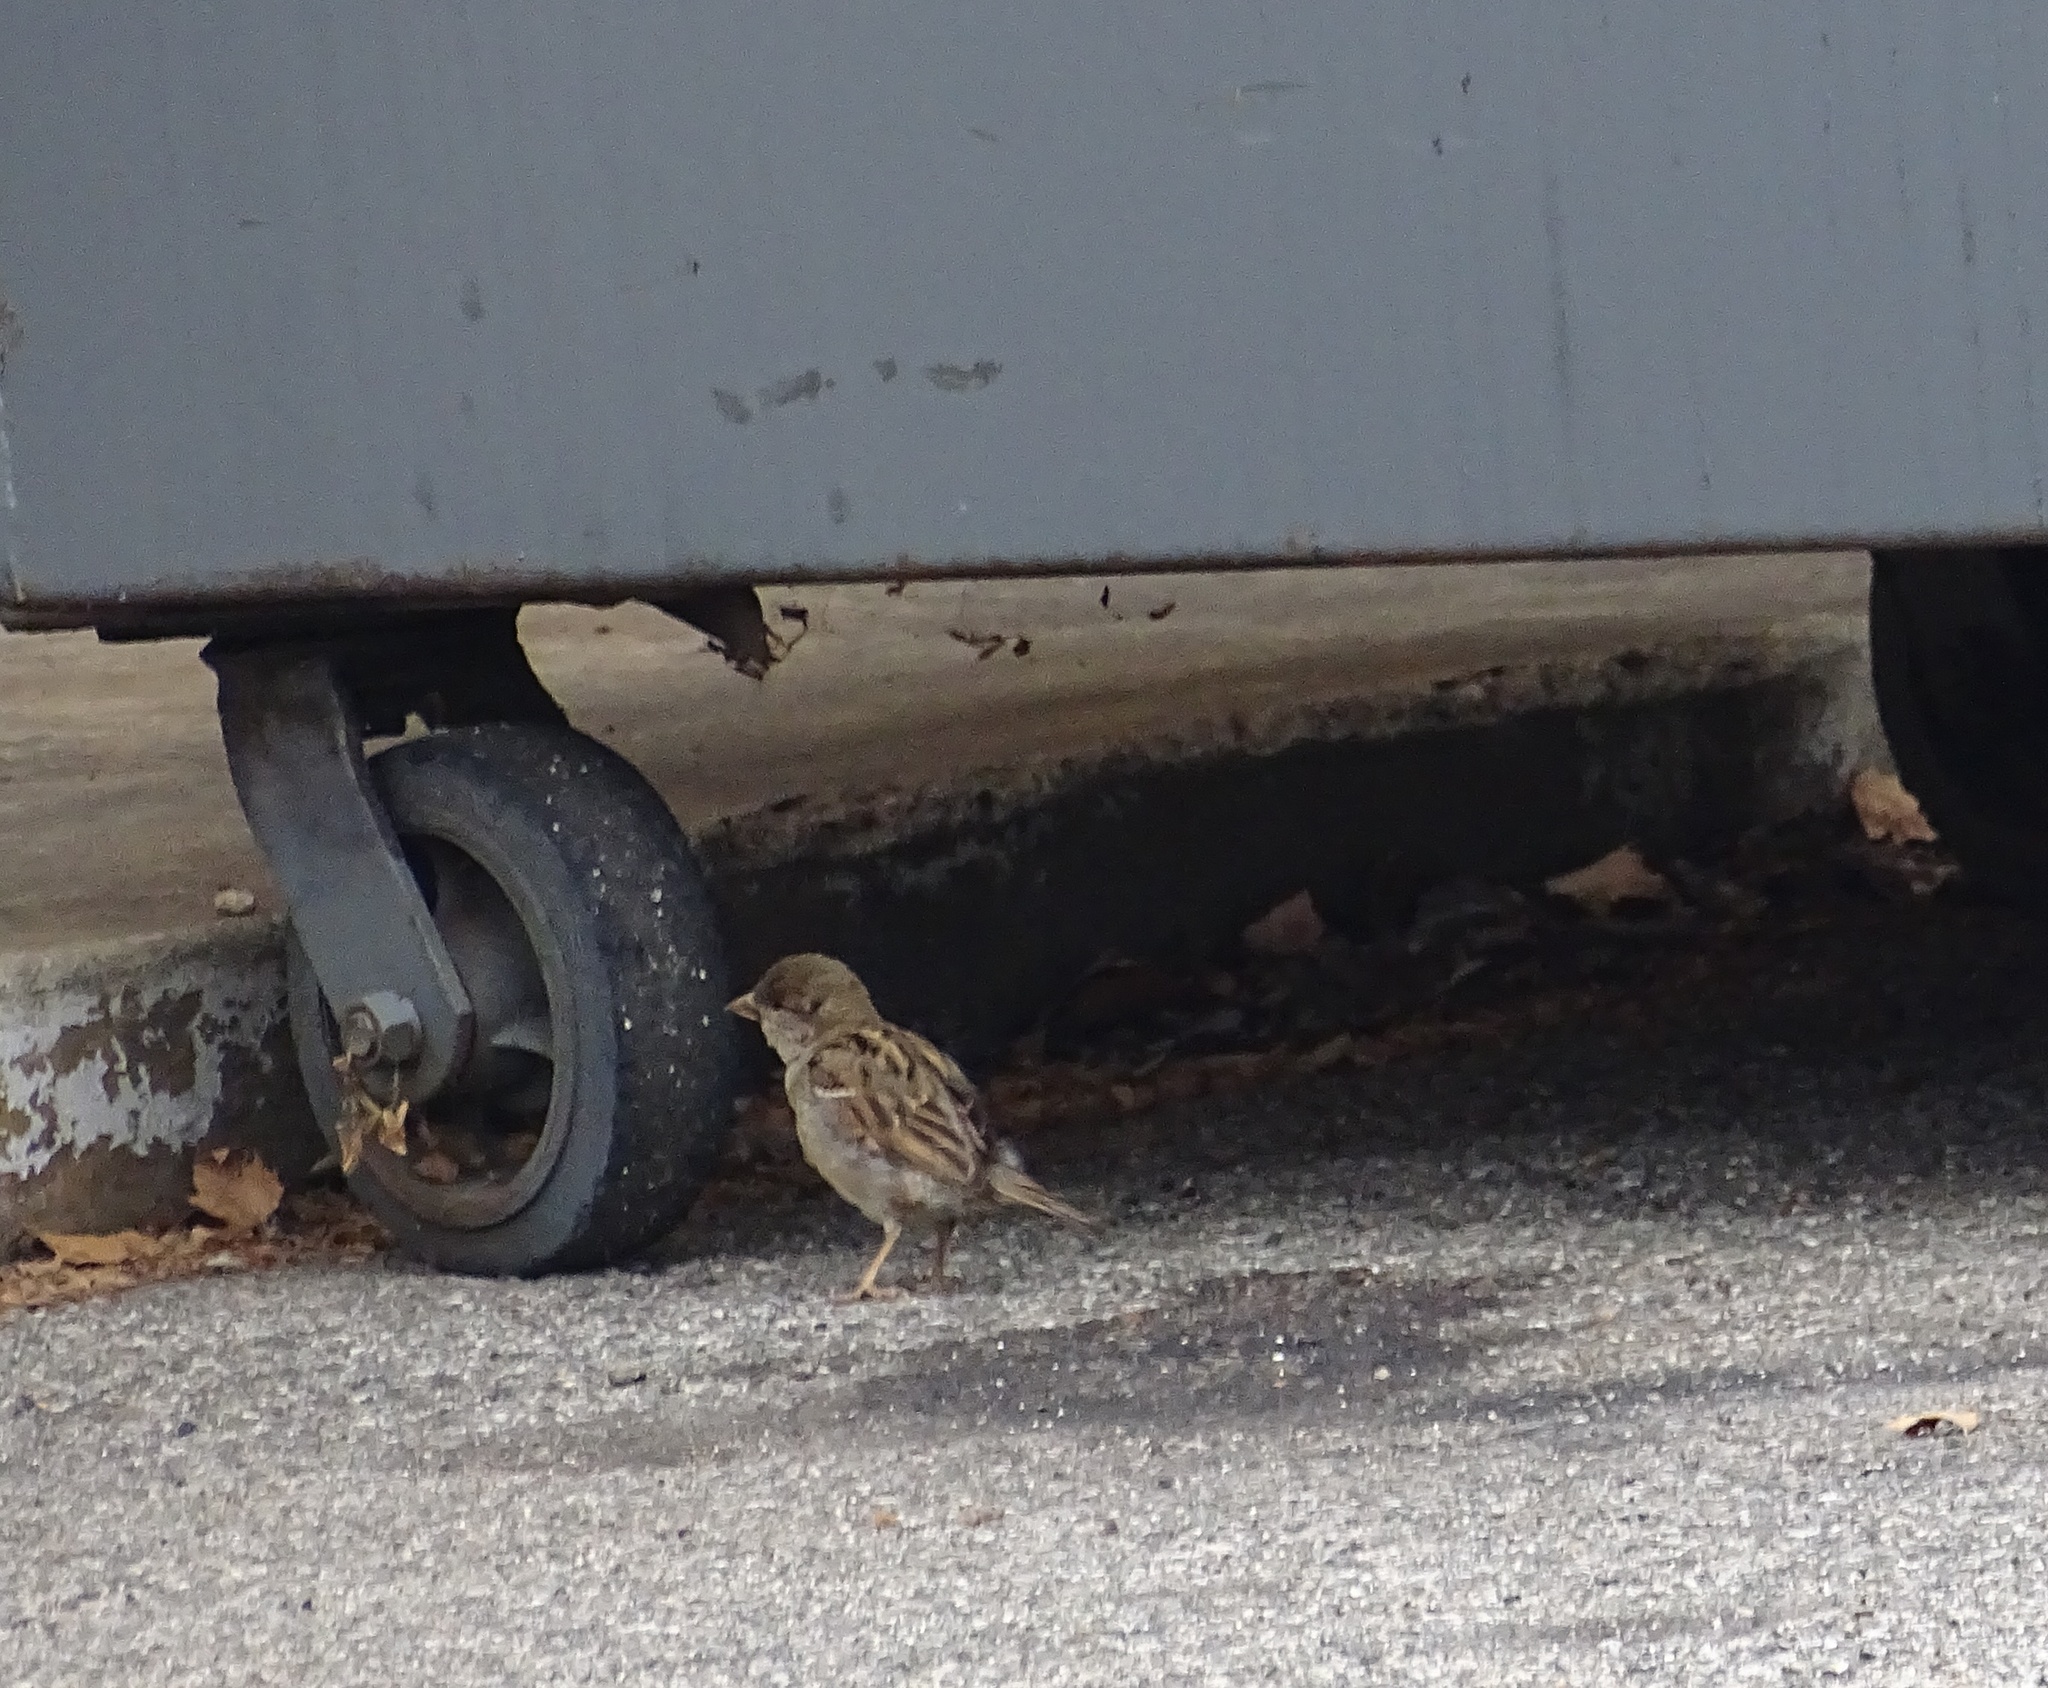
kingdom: Animalia
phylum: Chordata
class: Aves
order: Passeriformes
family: Passeridae
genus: Passer
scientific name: Passer domesticus
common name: House sparrow
